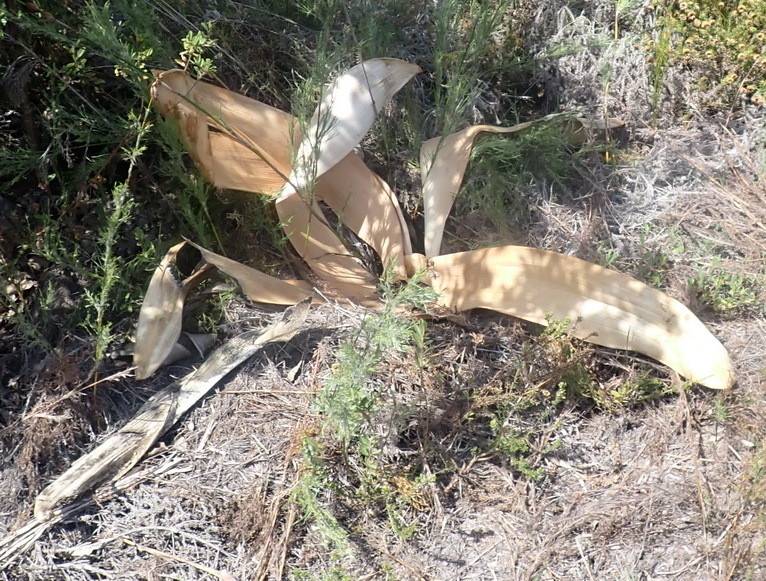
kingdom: Plantae
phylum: Tracheophyta
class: Liliopsida
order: Asparagales
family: Amaryllidaceae
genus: Brunsvigia
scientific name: Brunsvigia orientalis
